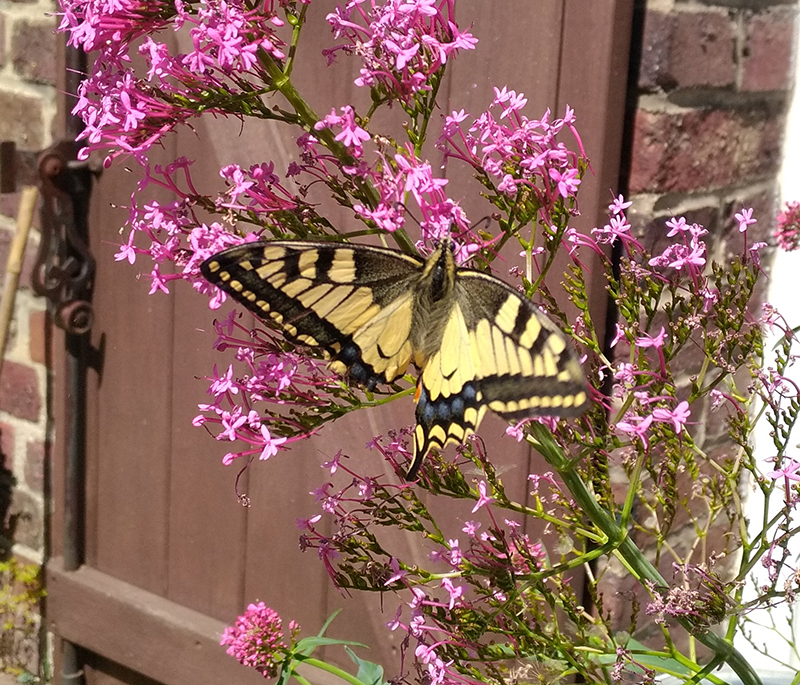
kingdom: Animalia
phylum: Arthropoda
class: Insecta
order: Lepidoptera
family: Papilionidae
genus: Papilio
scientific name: Papilio machaon
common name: Swallowtail
